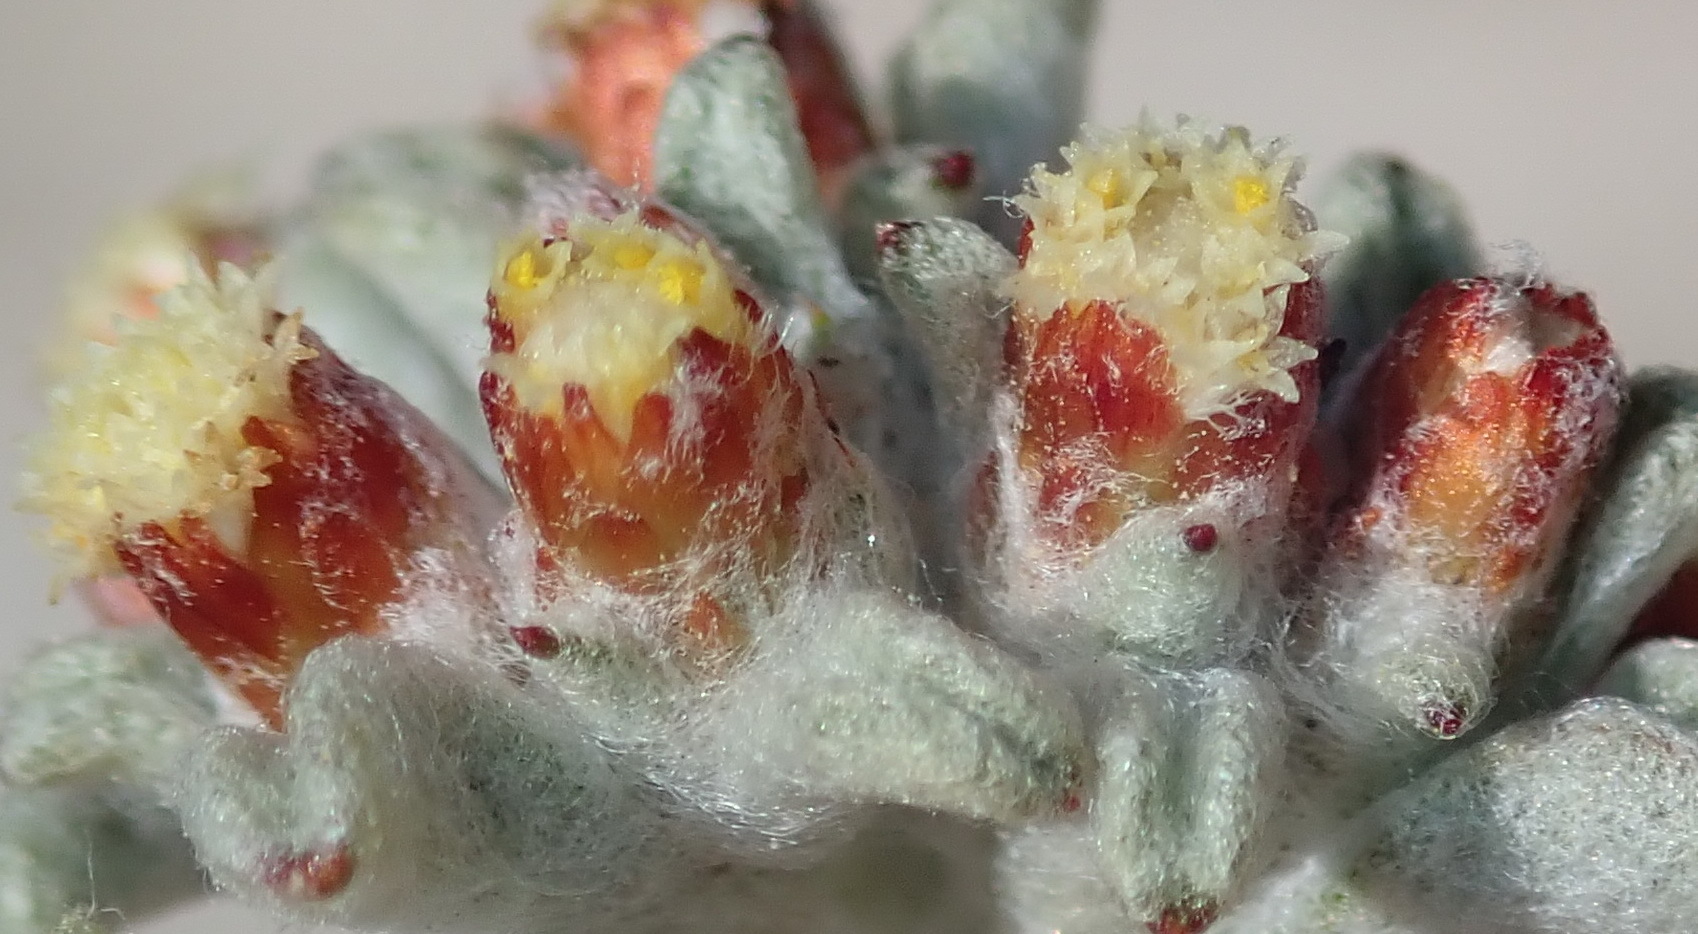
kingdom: Plantae
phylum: Tracheophyta
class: Magnoliopsida
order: Asterales
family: Asteraceae
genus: Helichrysum
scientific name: Helichrysum zwartbergense
